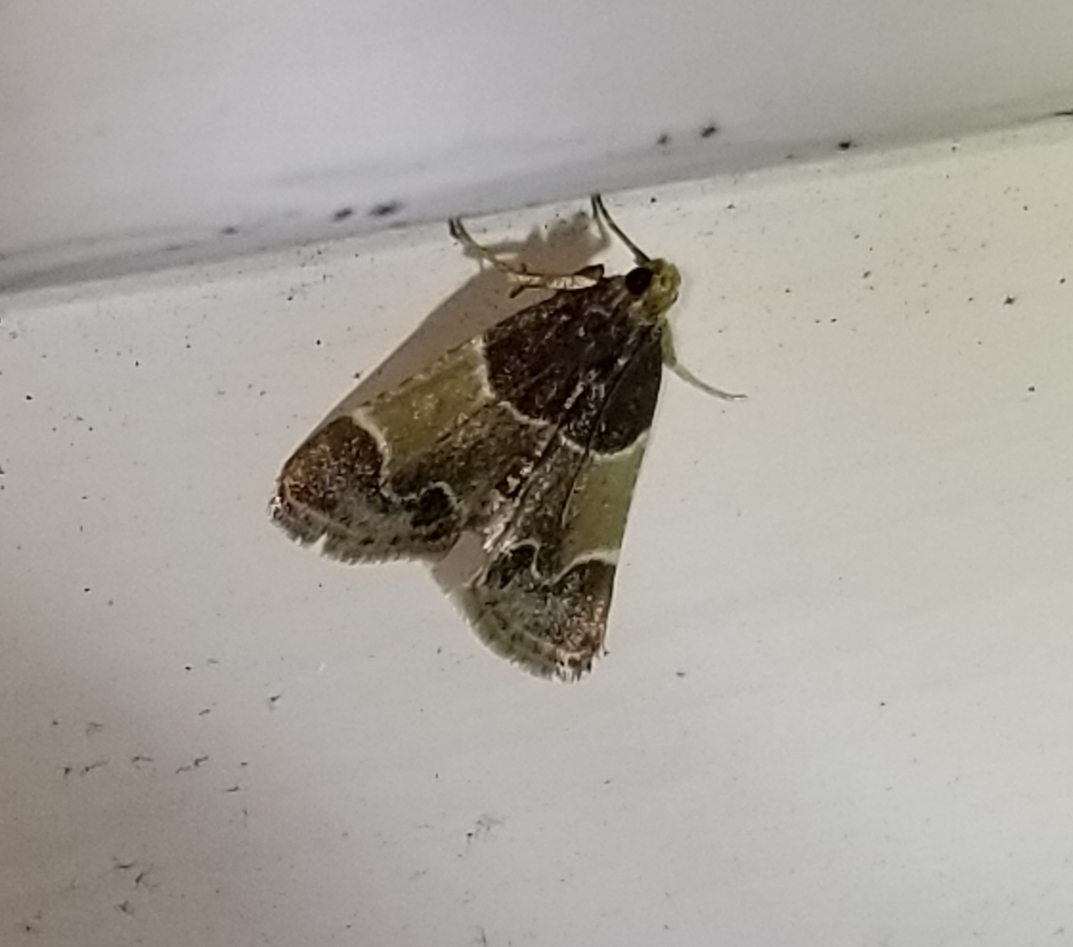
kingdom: Animalia
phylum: Arthropoda
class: Insecta
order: Lepidoptera
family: Pyralidae
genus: Pyralis
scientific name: Pyralis farinalis
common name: Meal moth
